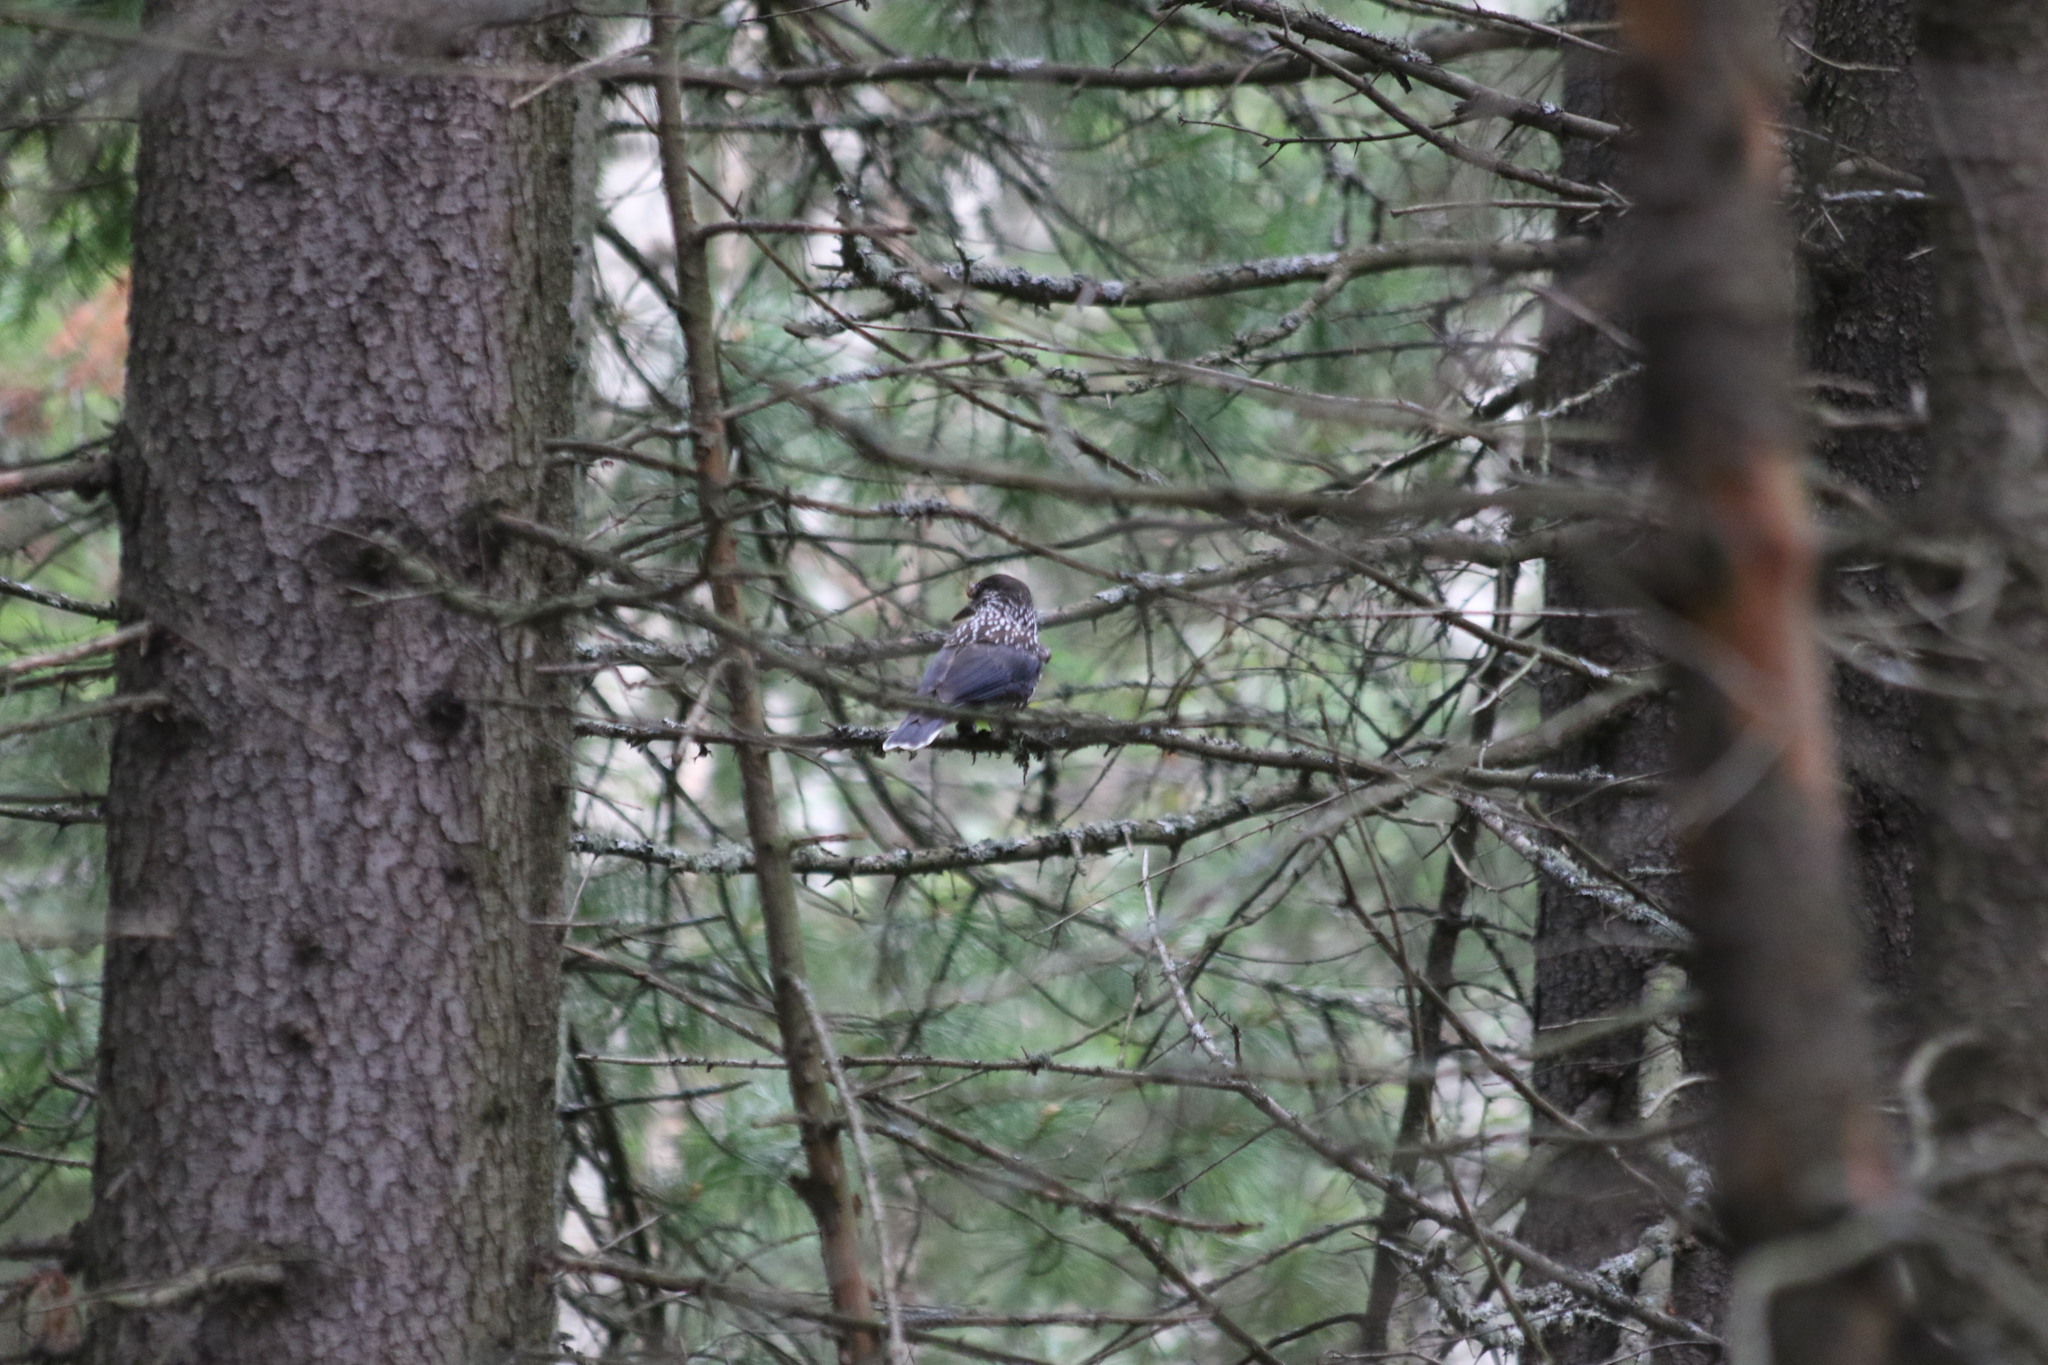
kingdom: Animalia
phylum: Chordata
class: Aves
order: Passeriformes
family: Corvidae
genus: Nucifraga
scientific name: Nucifraga caryocatactes
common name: Spotted nutcracker
